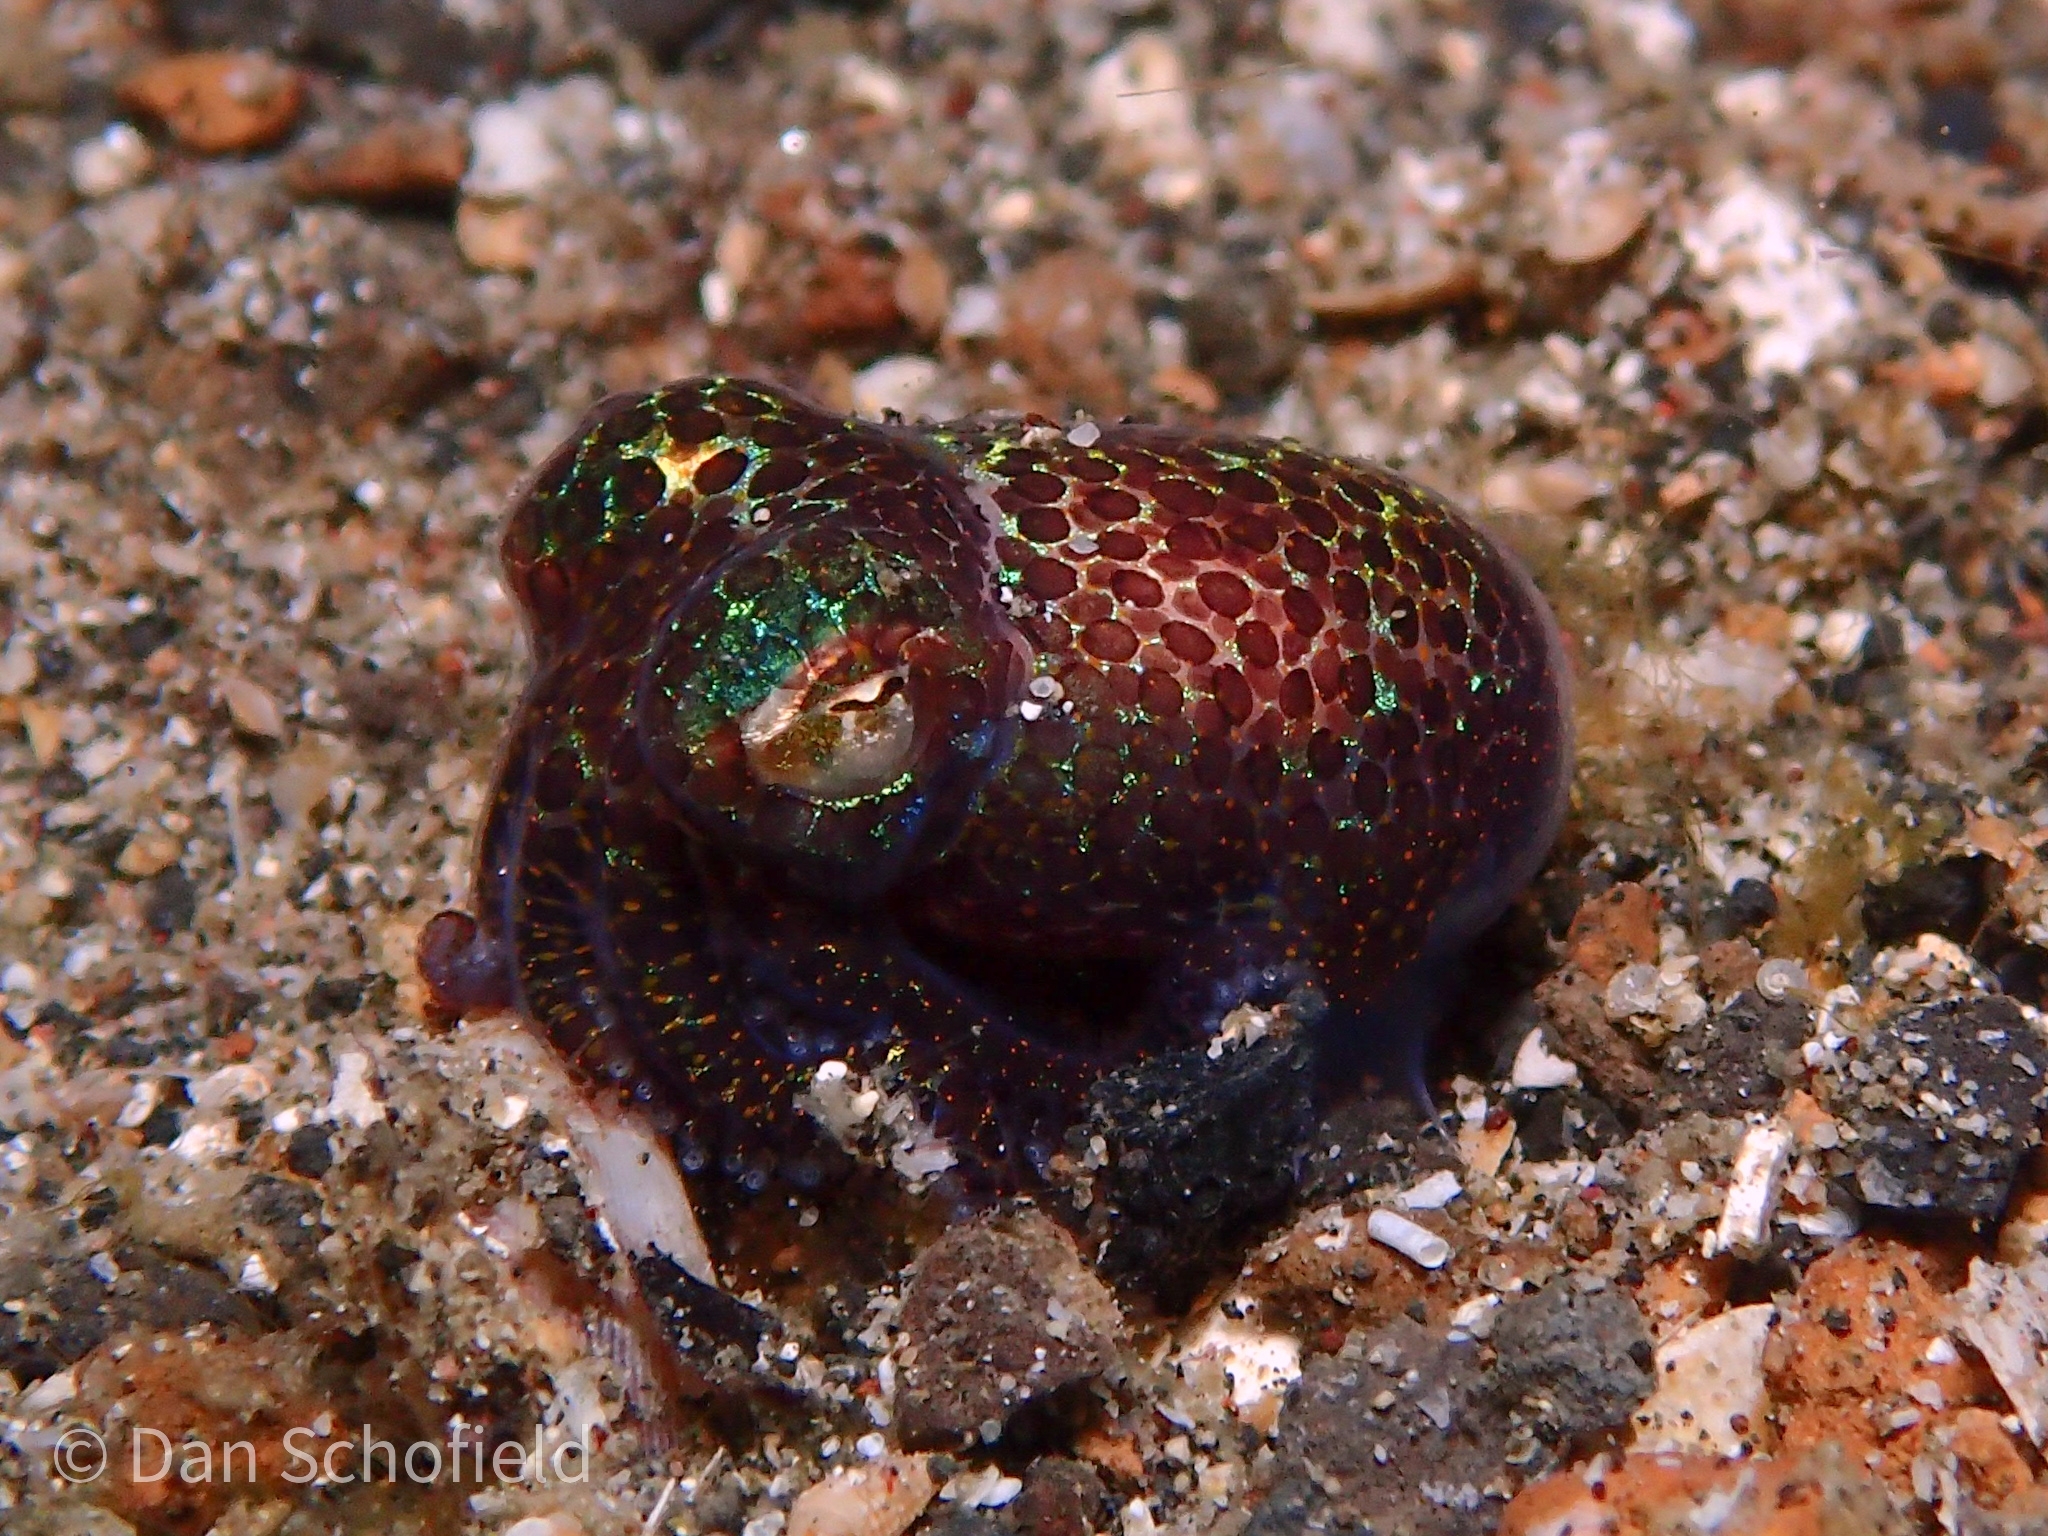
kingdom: Animalia
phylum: Mollusca
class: Cephalopoda
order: Sepiida
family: Sepiolidae
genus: Euprymna
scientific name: Euprymna berryi
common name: Humming-bird bobtail squid
